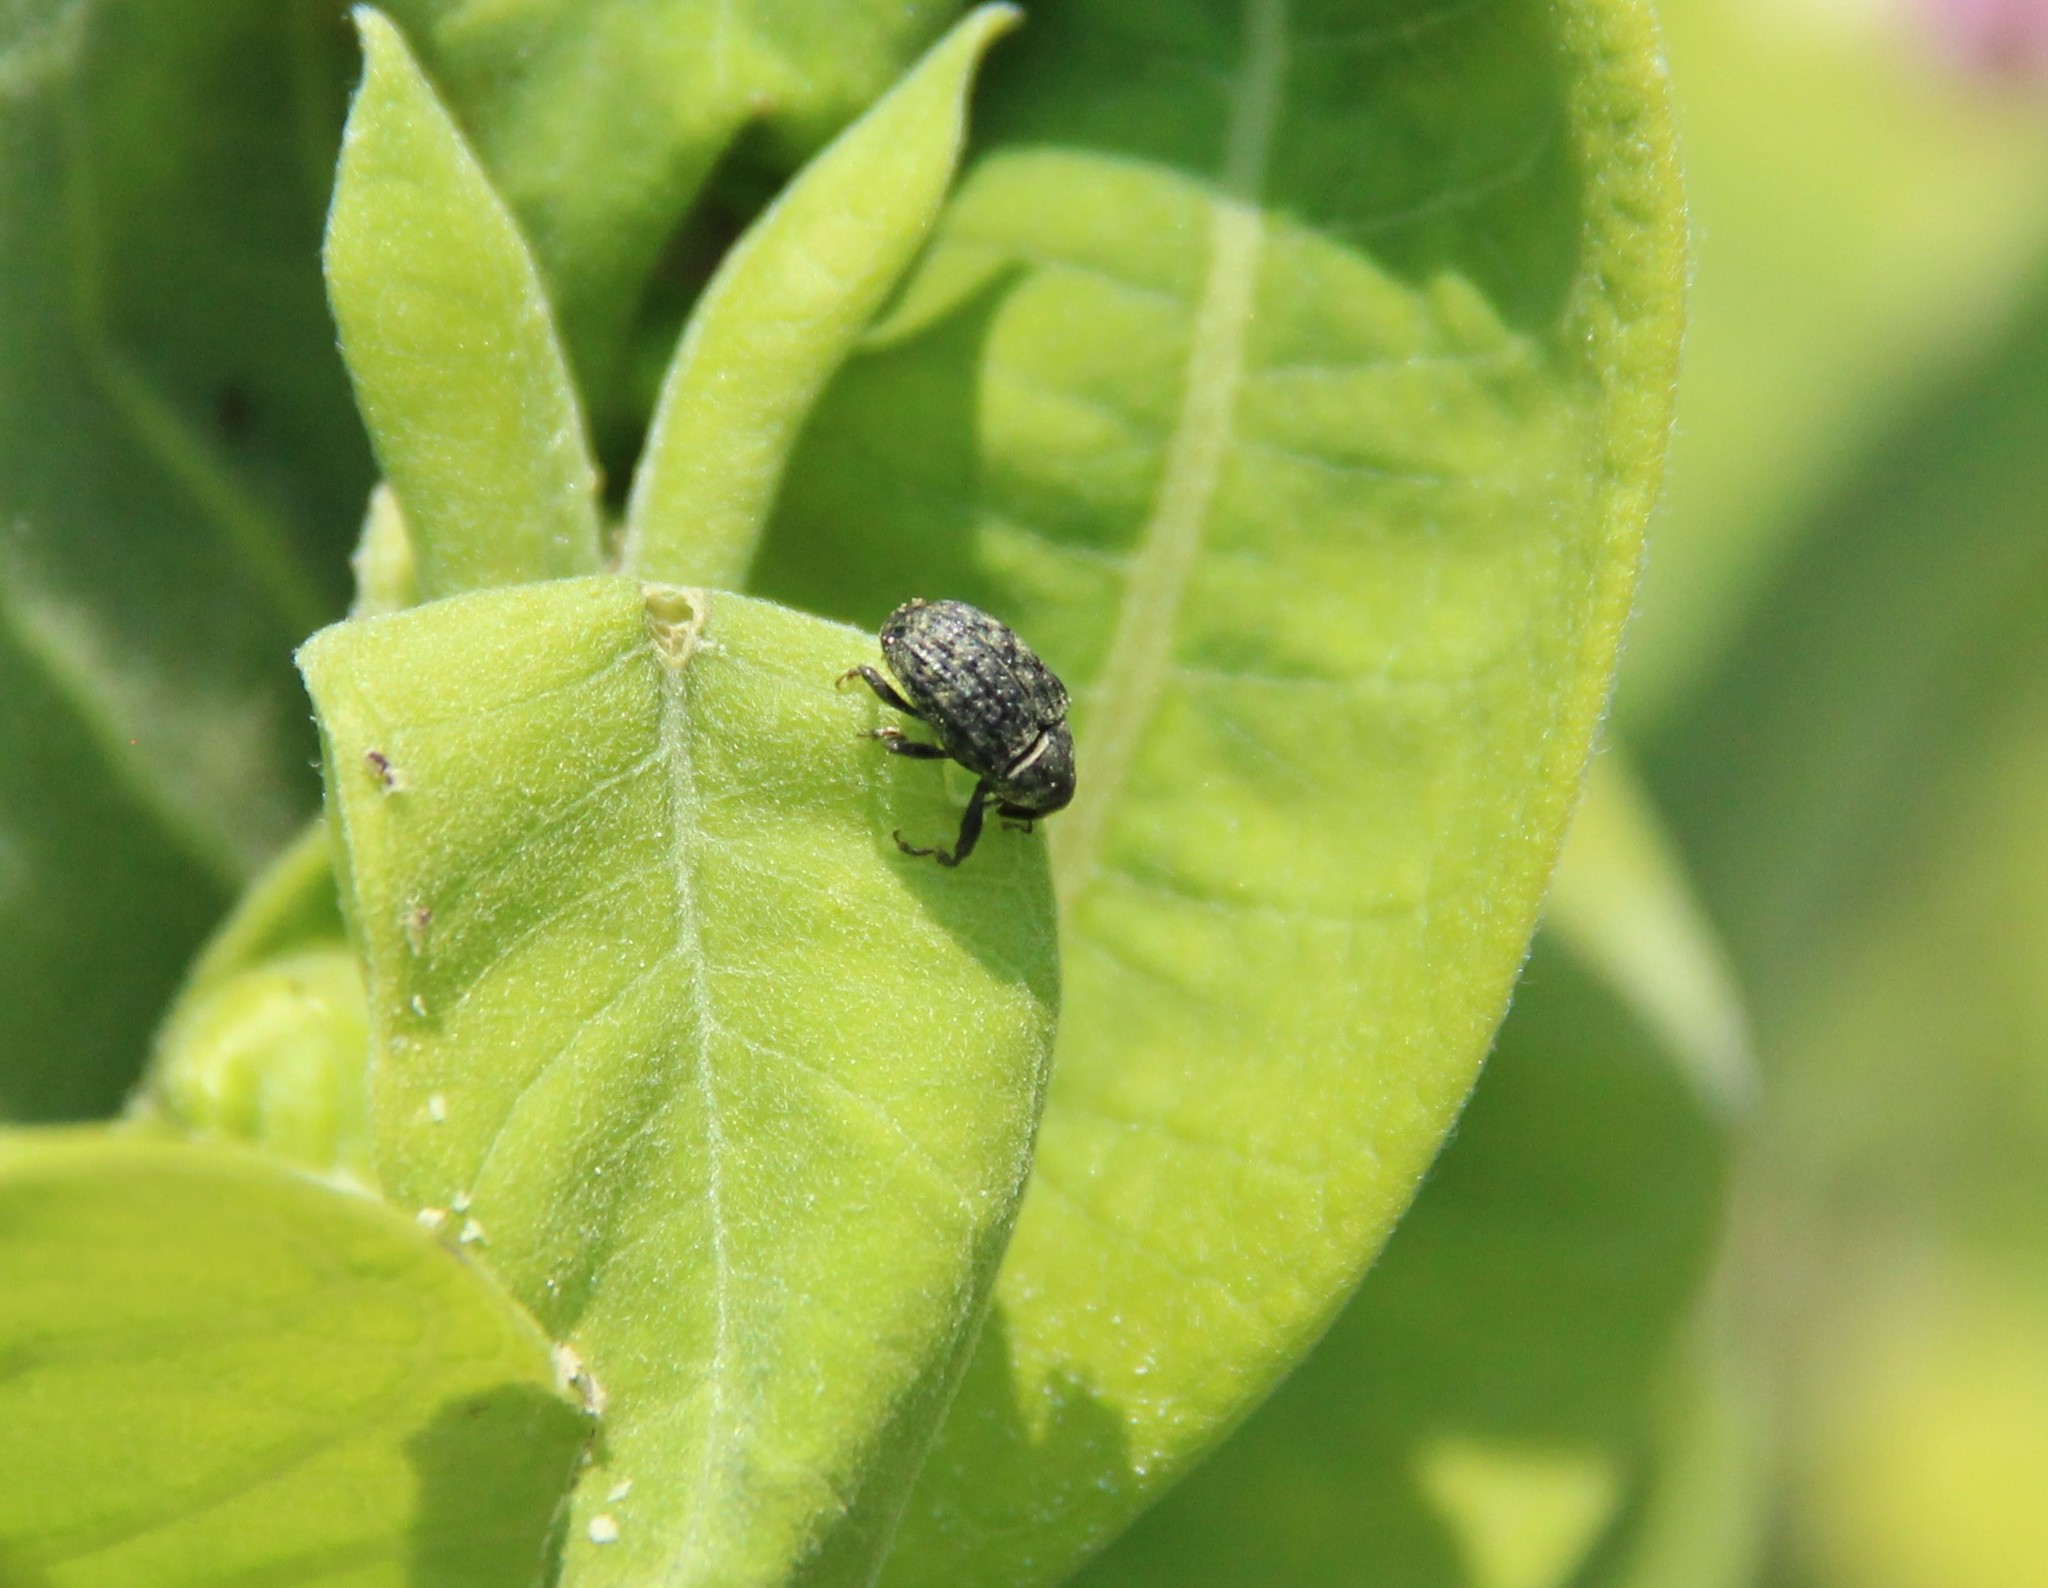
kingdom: Animalia
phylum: Arthropoda
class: Insecta
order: Coleoptera
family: Curculionidae
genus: Rhyssomatus
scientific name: Rhyssomatus lineaticollis
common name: Milkweed stem weevil
